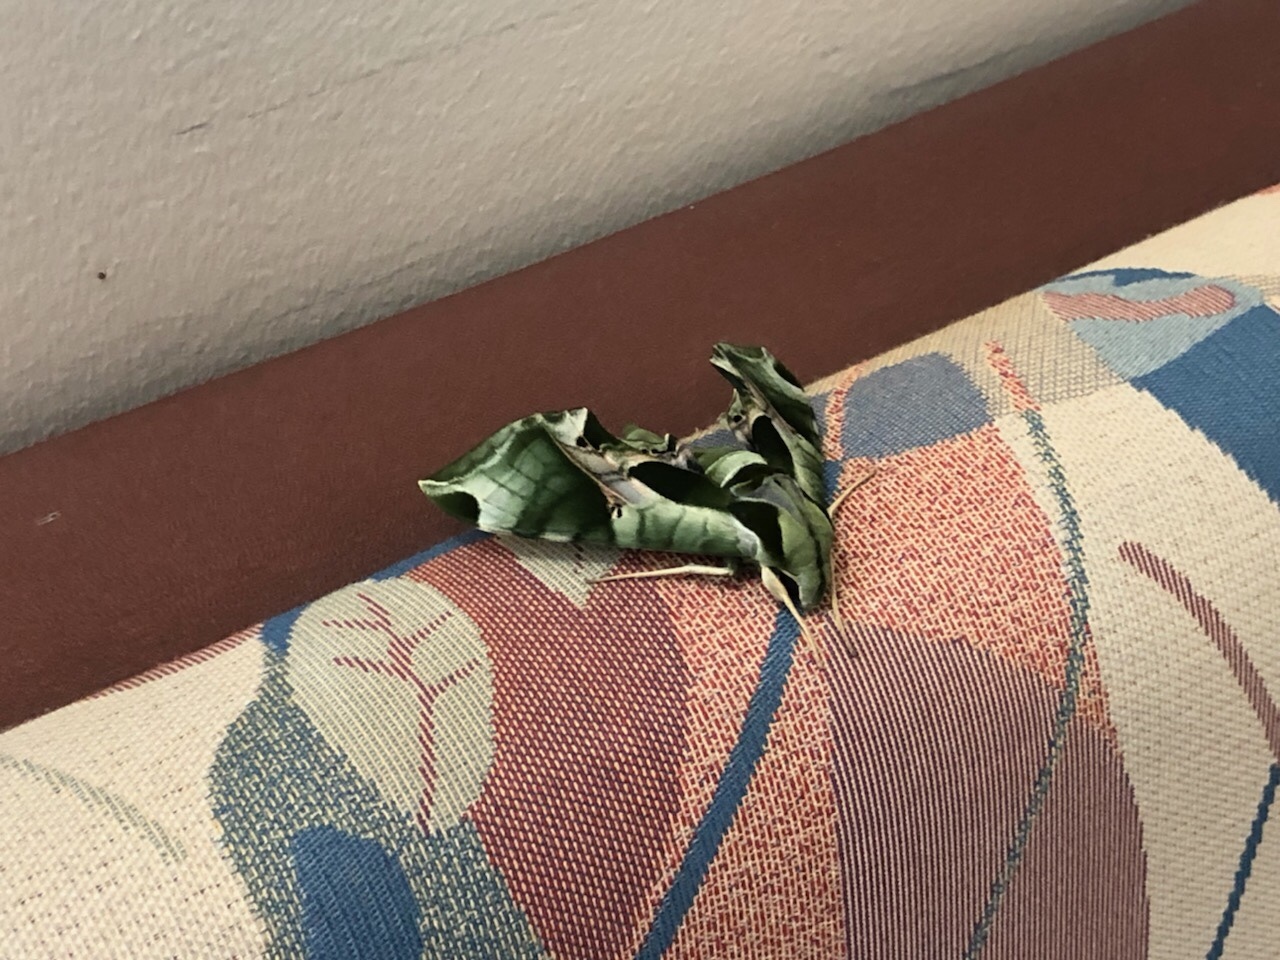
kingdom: Animalia
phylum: Arthropoda
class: Insecta
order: Lepidoptera
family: Sphingidae
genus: Eumorpha
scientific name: Eumorpha pandorus
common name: Pandora sphinx
